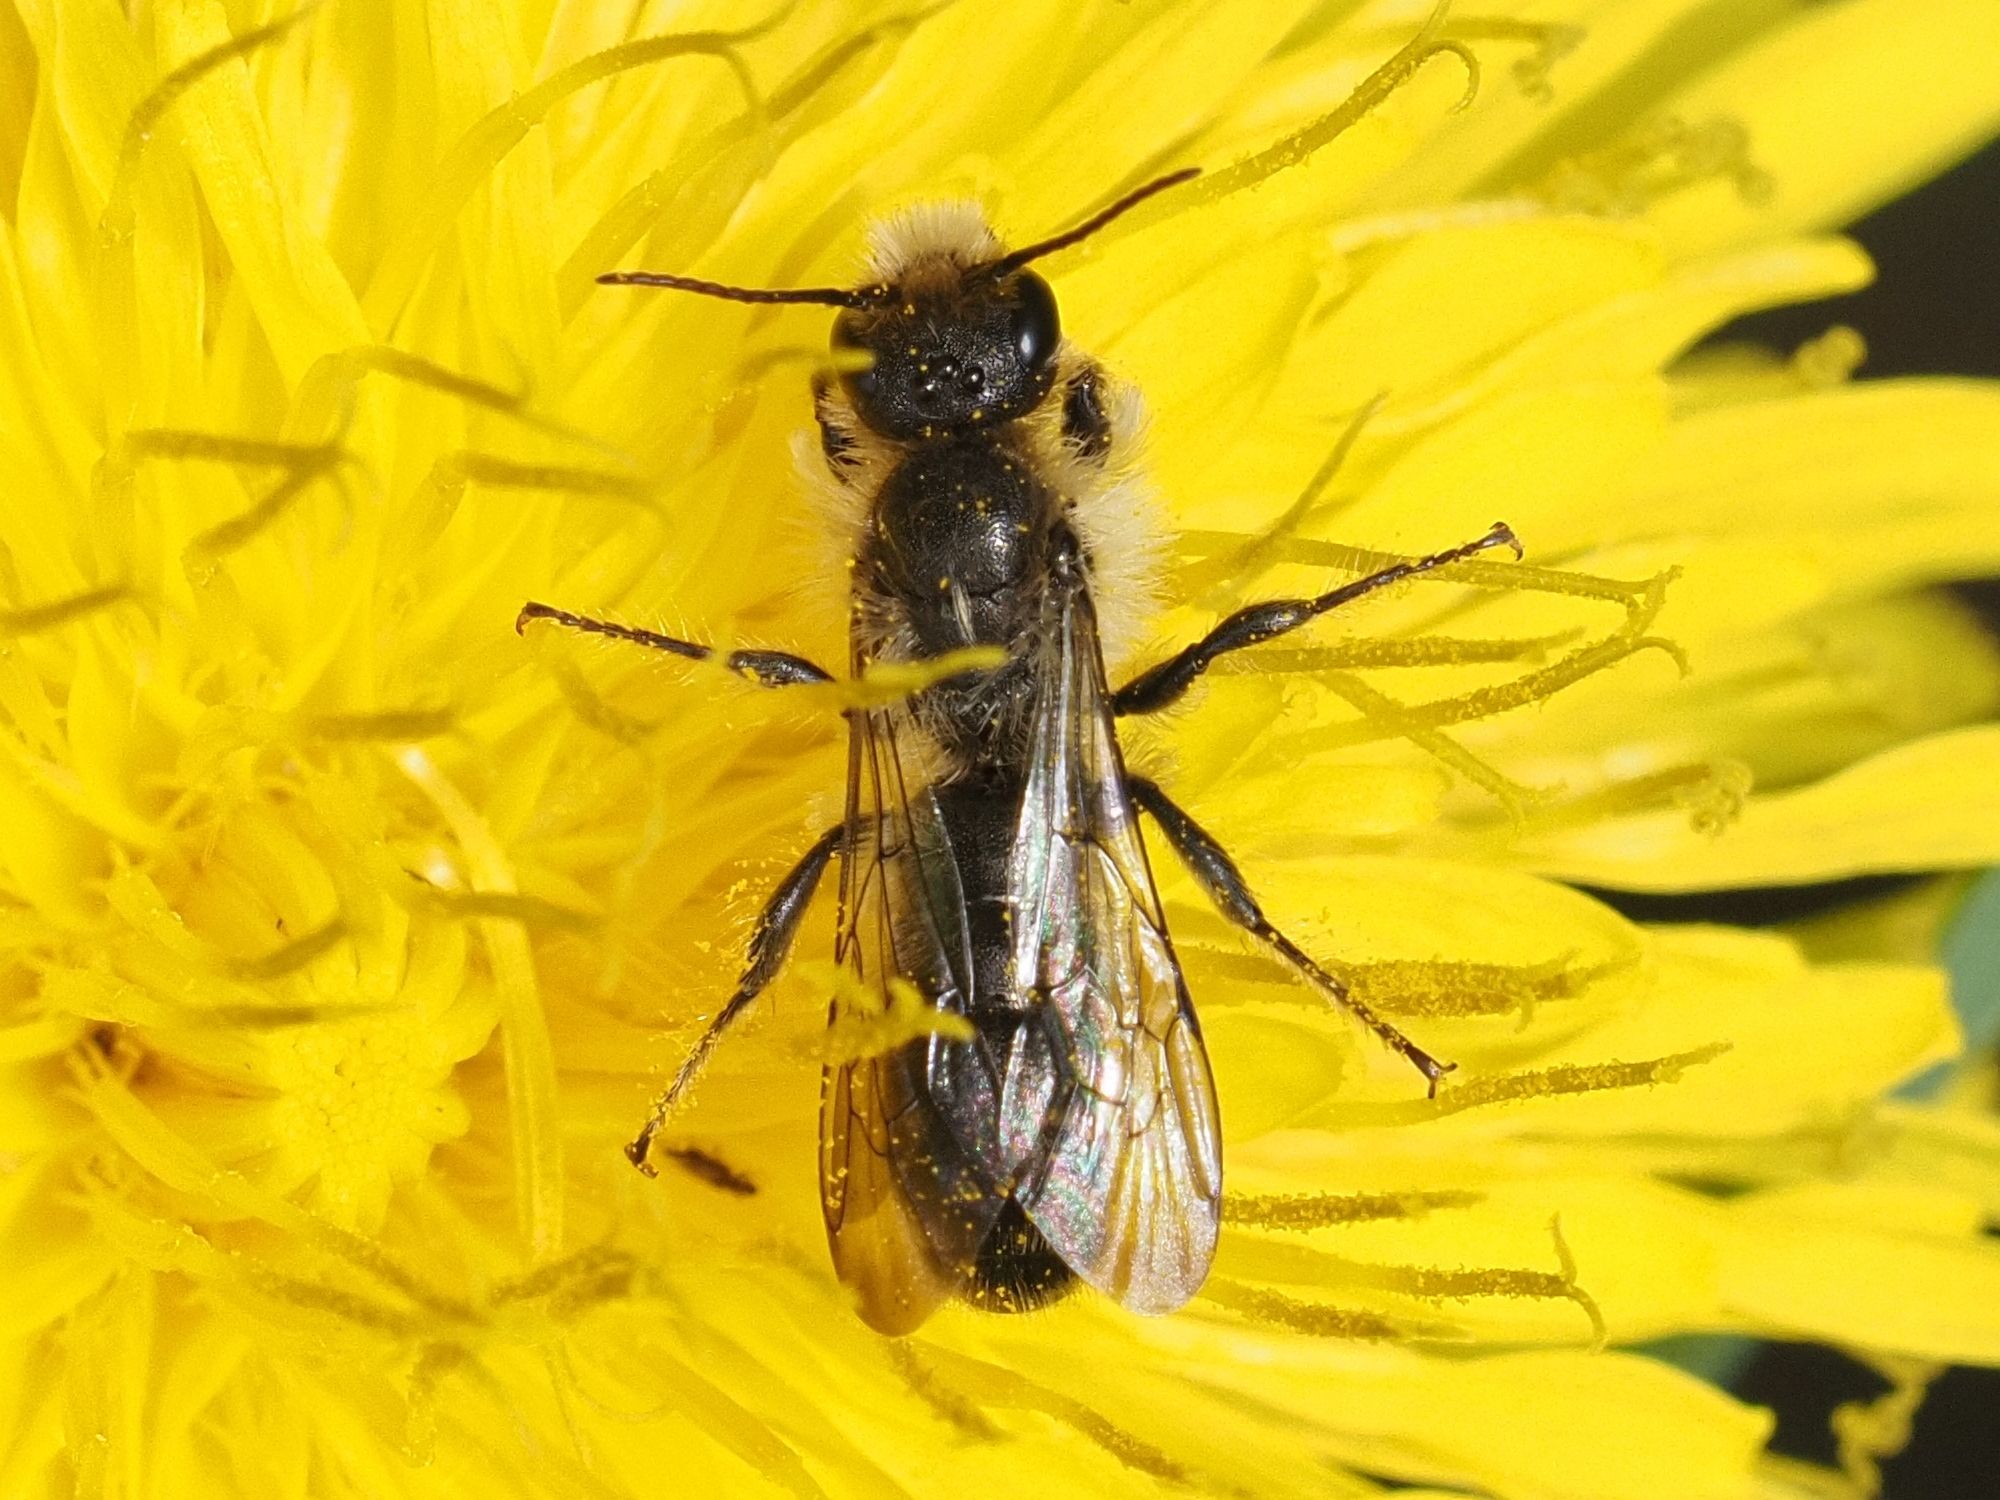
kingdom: Animalia
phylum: Arthropoda
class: Insecta
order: Hymenoptera
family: Megachilidae
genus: Chelostoma
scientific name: Chelostoma florisomne
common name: Sleepy carpenter bee
